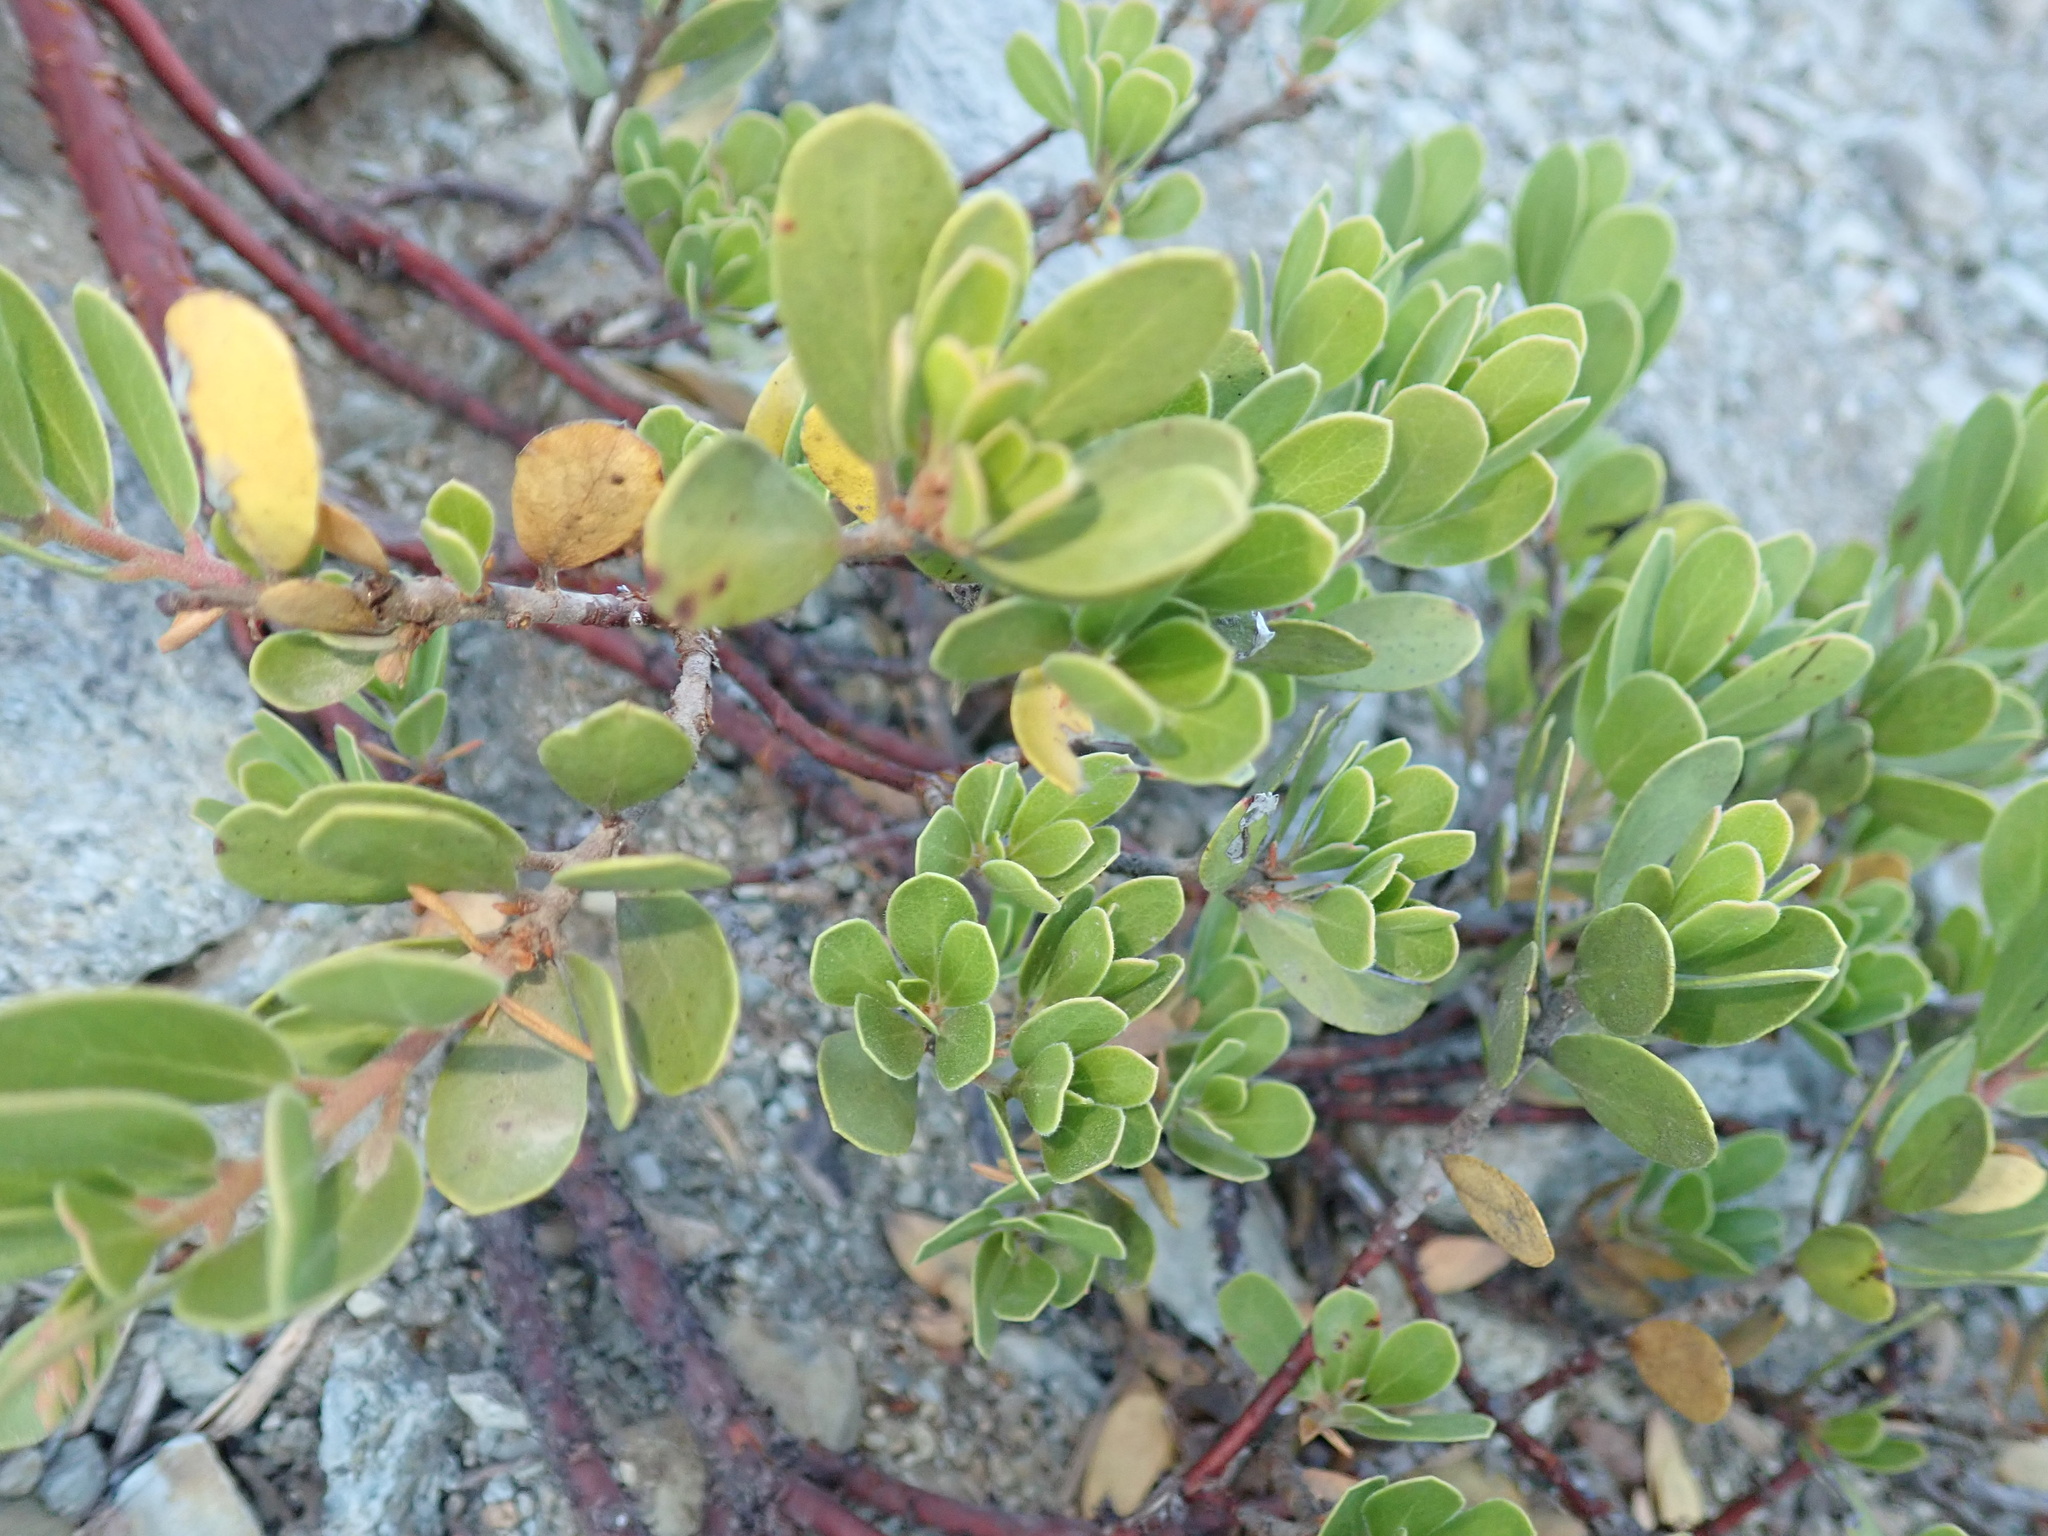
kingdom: Plantae
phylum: Tracheophyta
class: Magnoliopsida
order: Ericales
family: Ericaceae
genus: Arctostaphylos
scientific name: Arctostaphylos nevadensis
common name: Pinemat manzanita
